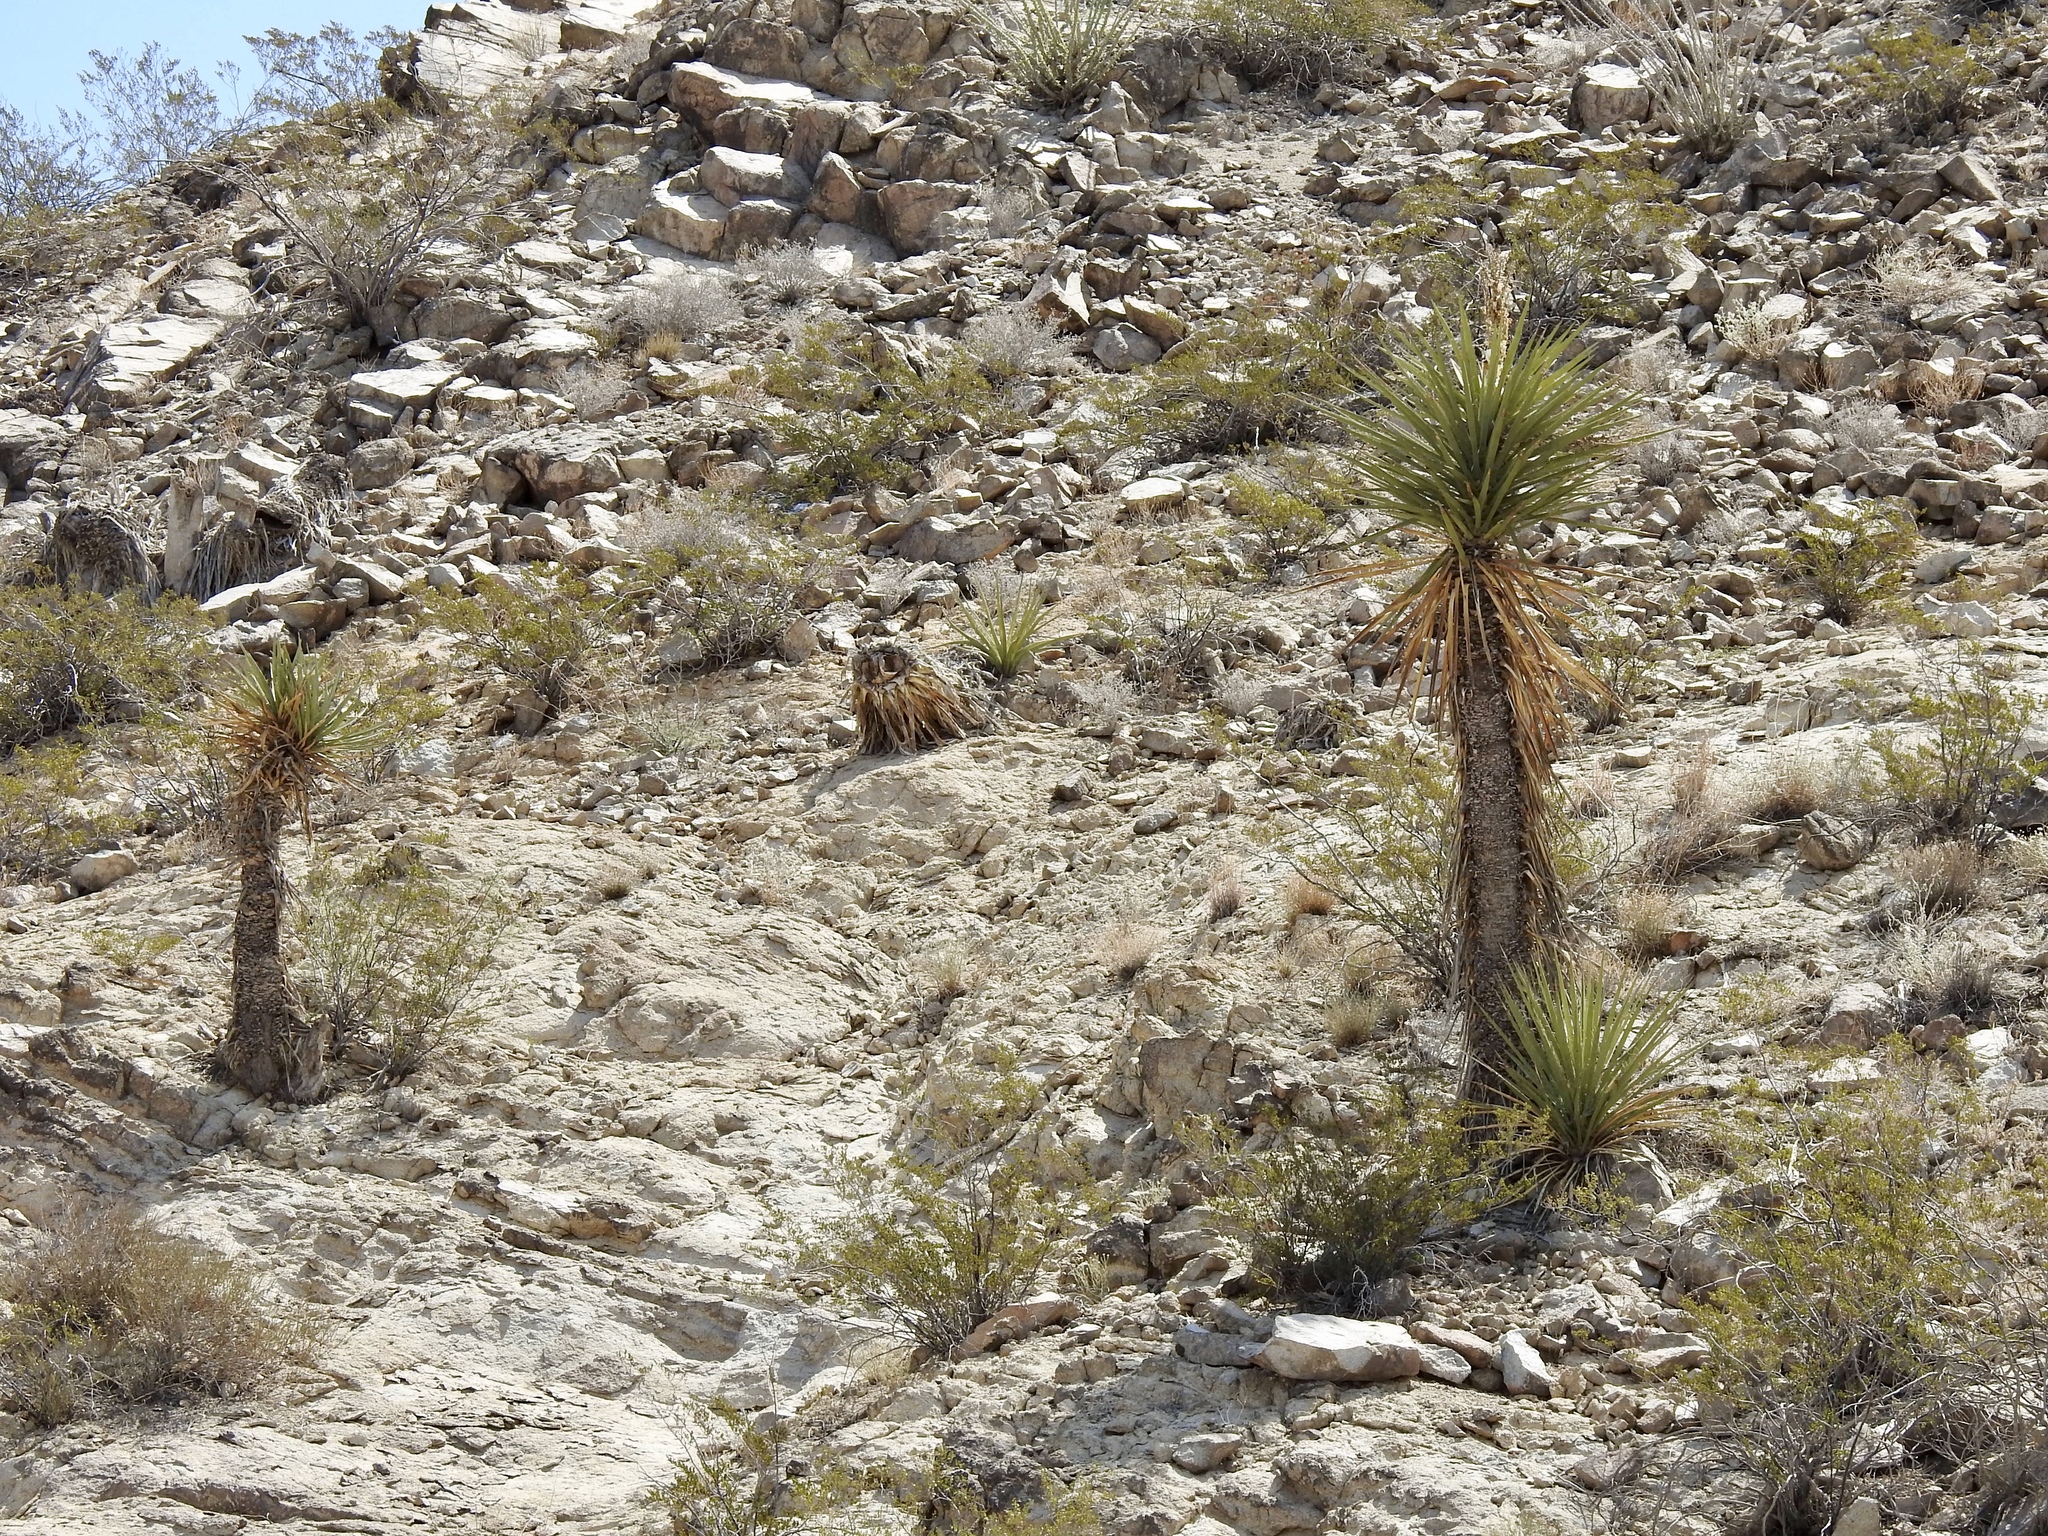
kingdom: Plantae
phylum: Tracheophyta
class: Liliopsida
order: Asparagales
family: Asparagaceae
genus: Yucca
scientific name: Yucca treculiana
